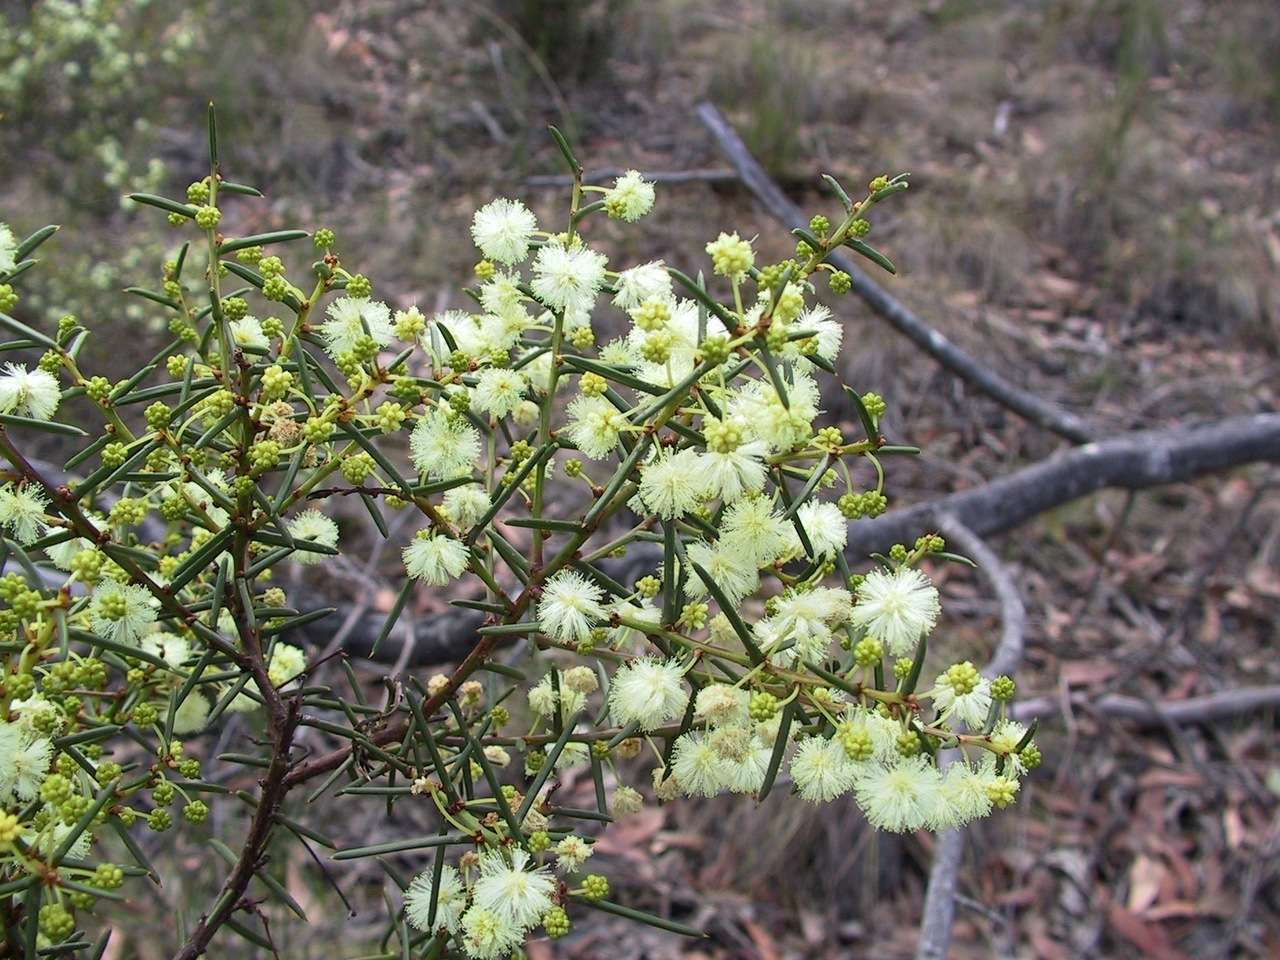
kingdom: Plantae
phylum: Tracheophyta
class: Magnoliopsida
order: Fabales
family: Fabaceae
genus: Acacia
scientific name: Acacia genistifolia
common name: Early wattle
